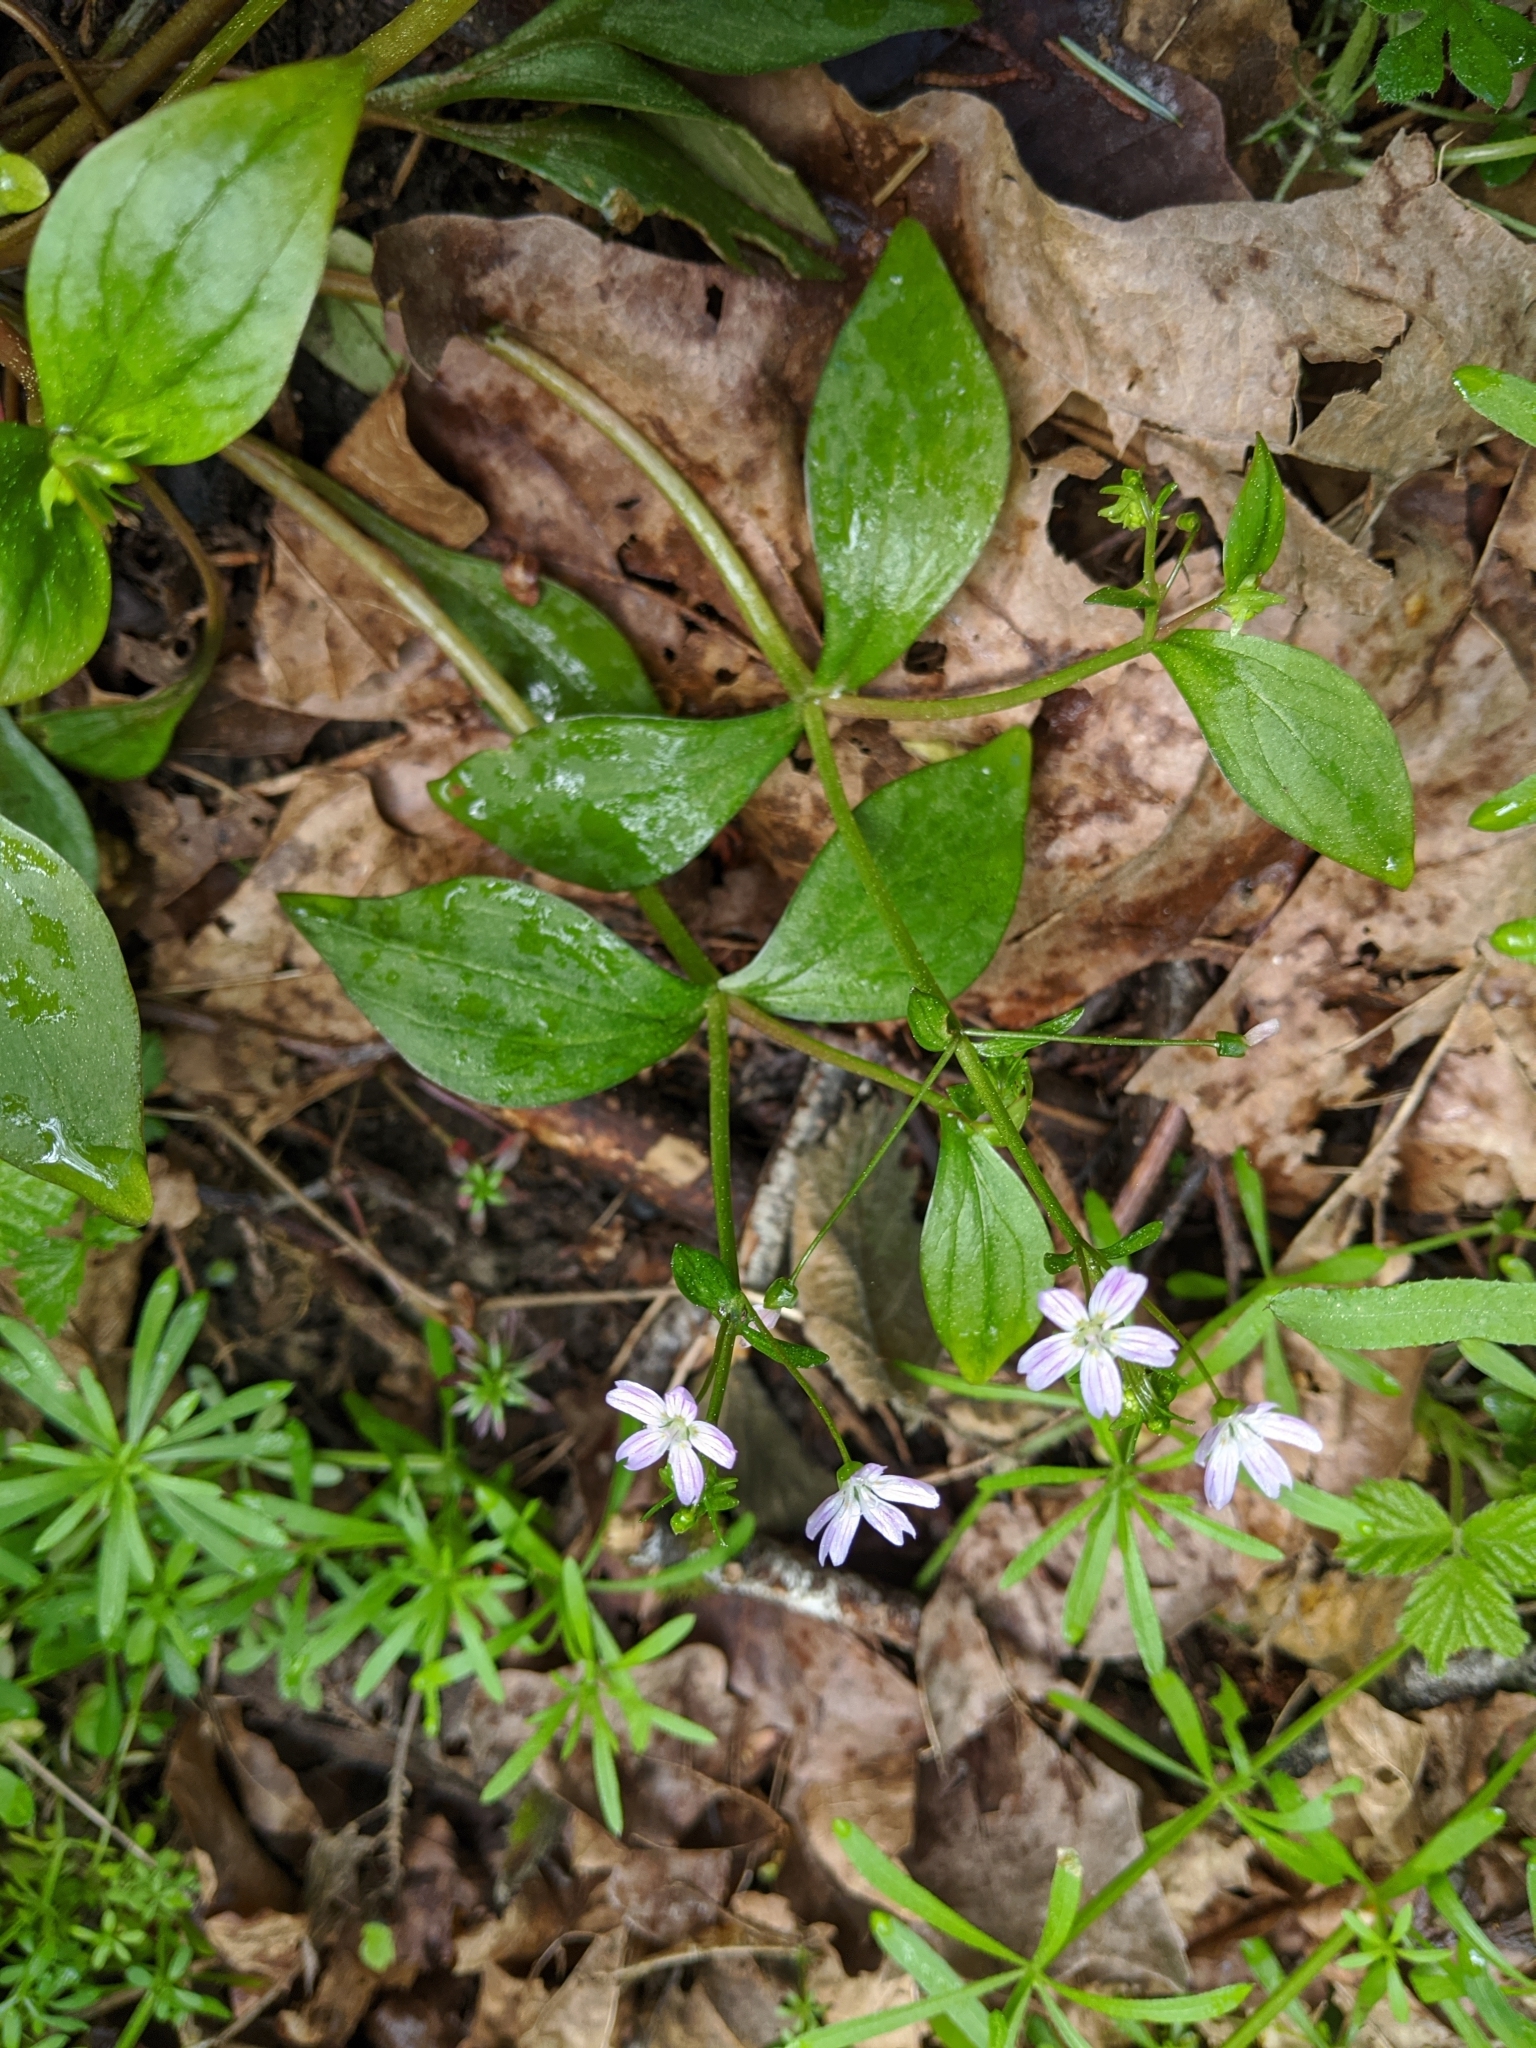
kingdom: Plantae
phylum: Tracheophyta
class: Magnoliopsida
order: Caryophyllales
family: Montiaceae
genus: Claytonia
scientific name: Claytonia sibirica
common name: Pink purslane
